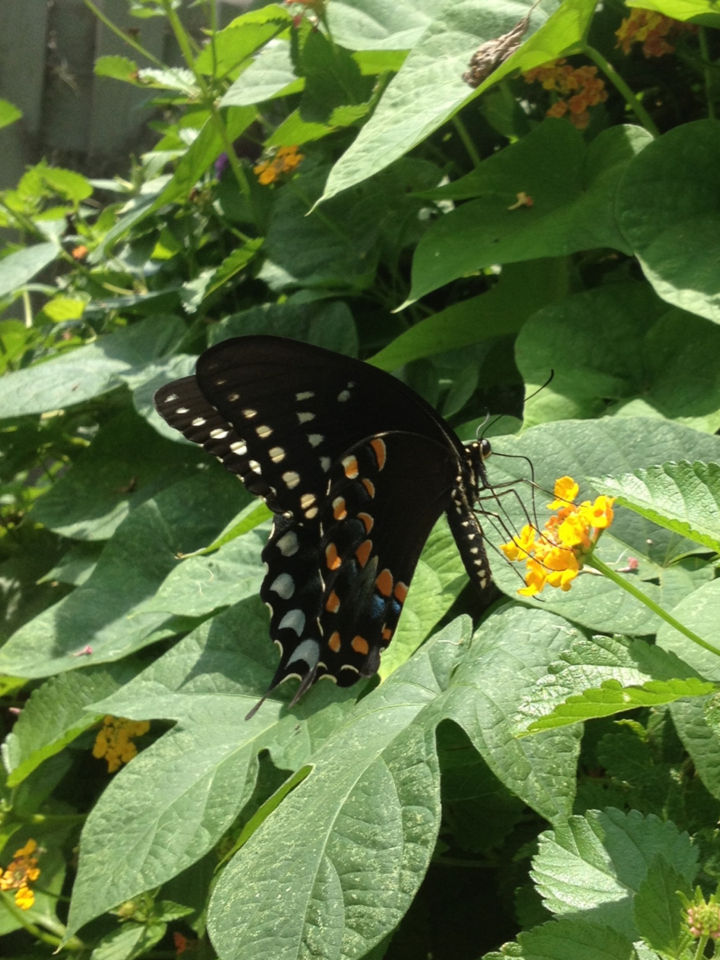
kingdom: Animalia
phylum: Arthropoda
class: Insecta
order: Lepidoptera
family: Papilionidae
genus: Papilio
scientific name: Papilio troilus
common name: Spicebush swallowtail
